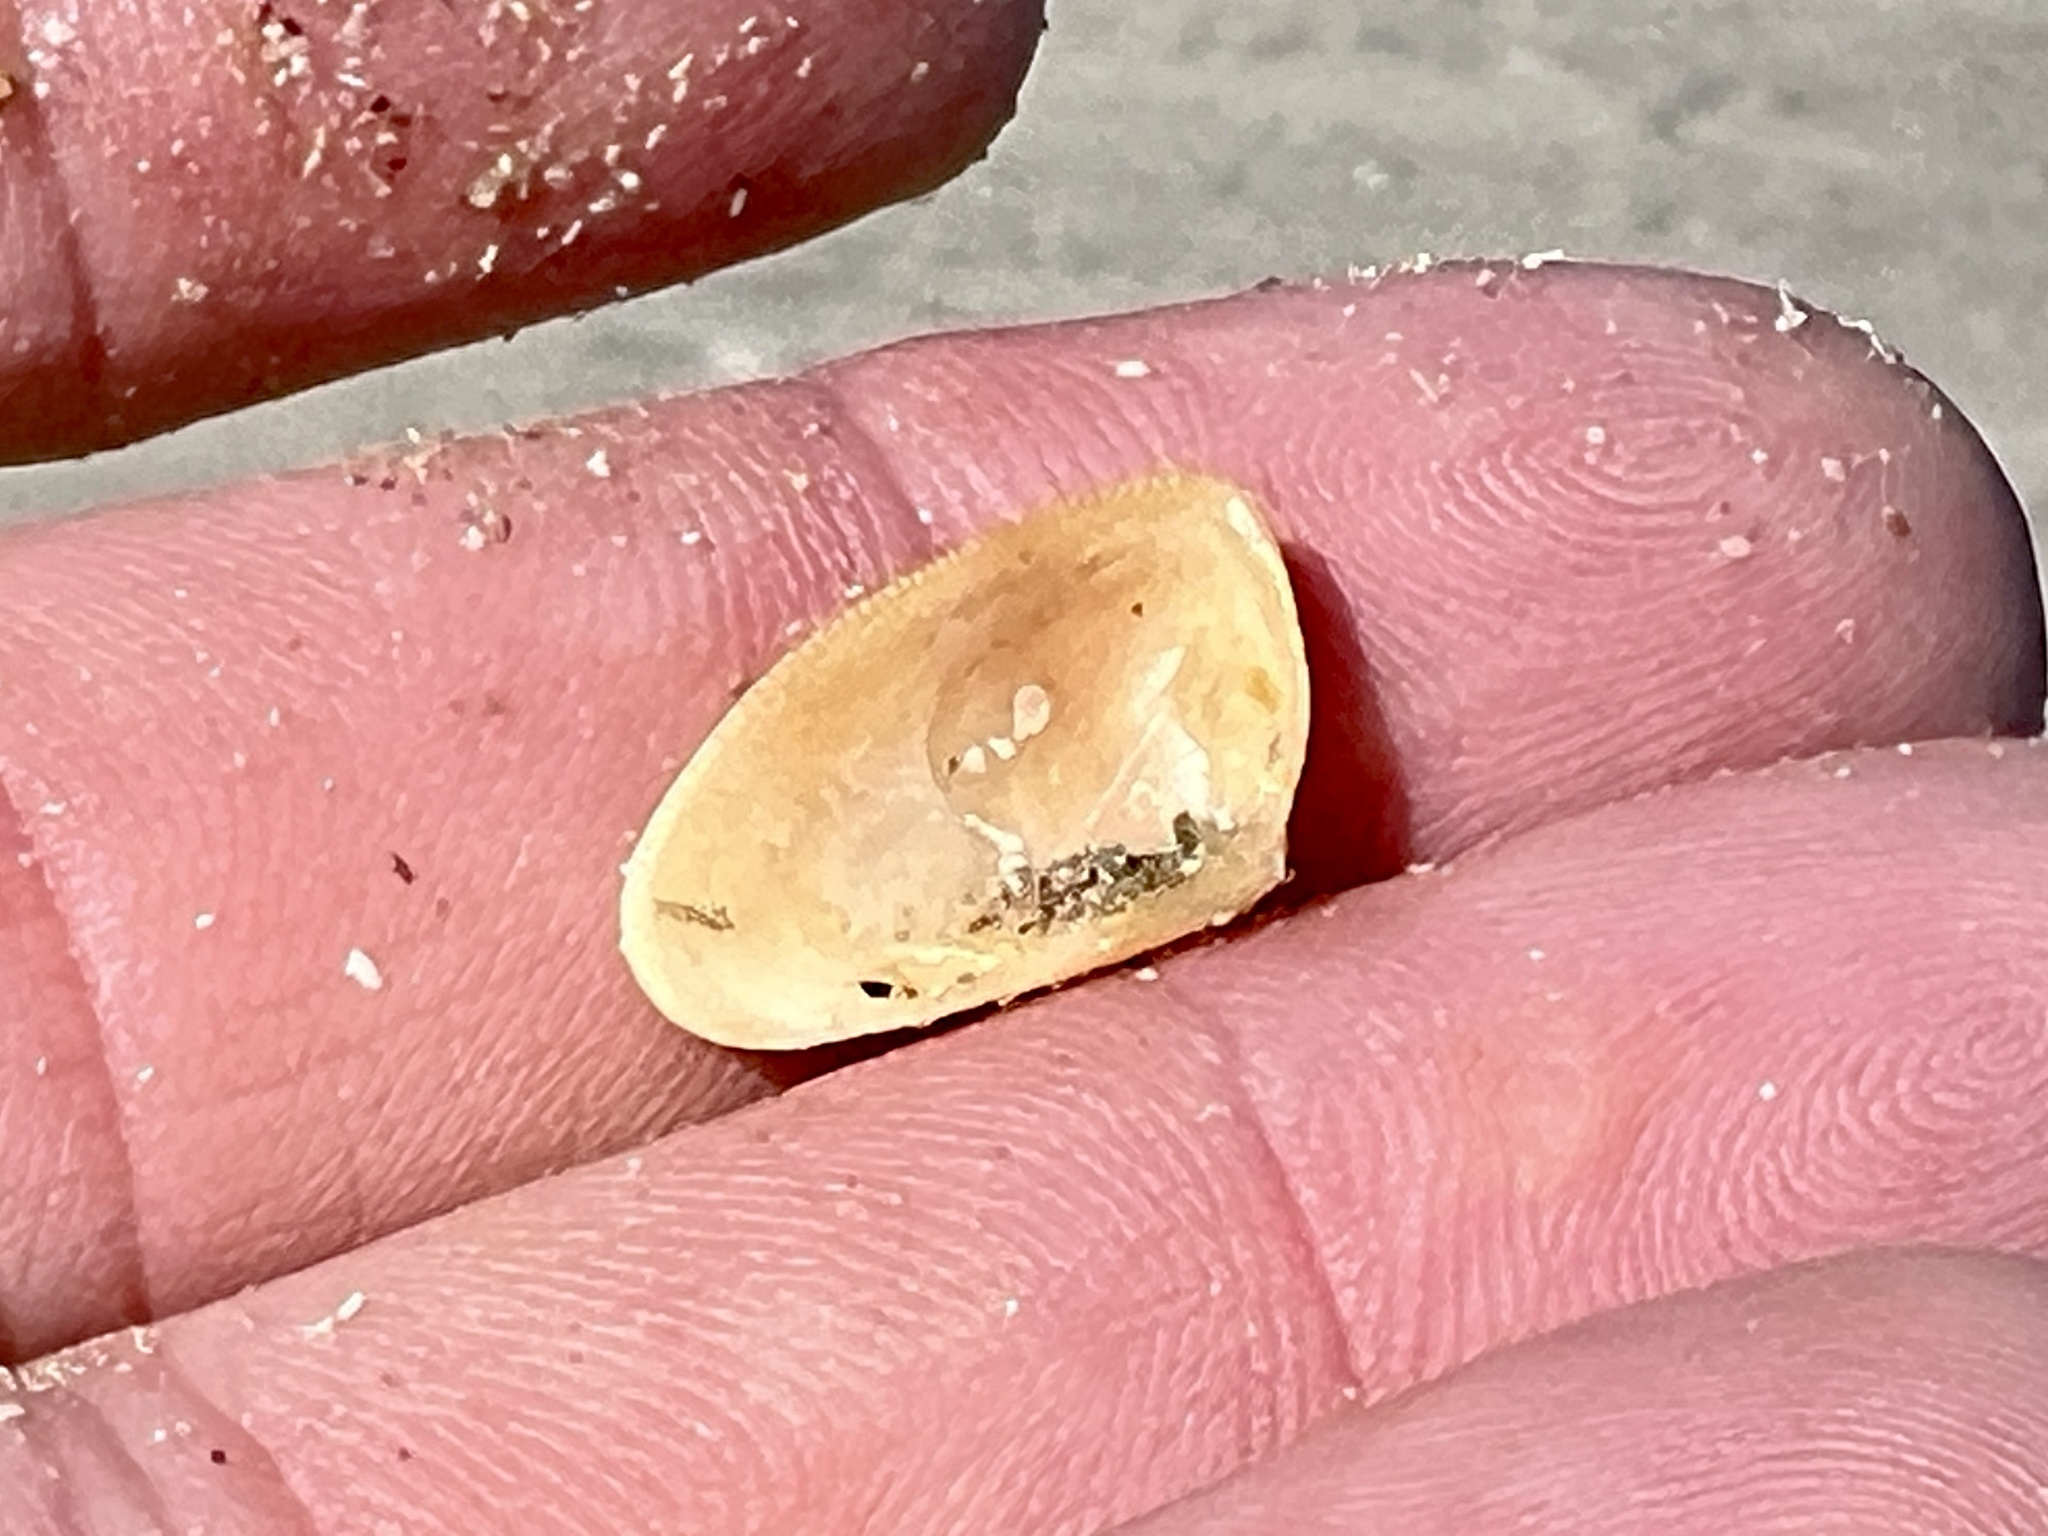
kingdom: Animalia
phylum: Mollusca
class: Bivalvia
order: Cardiida
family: Donacidae
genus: Donax
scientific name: Donax variabilis
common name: Butterfly shell
